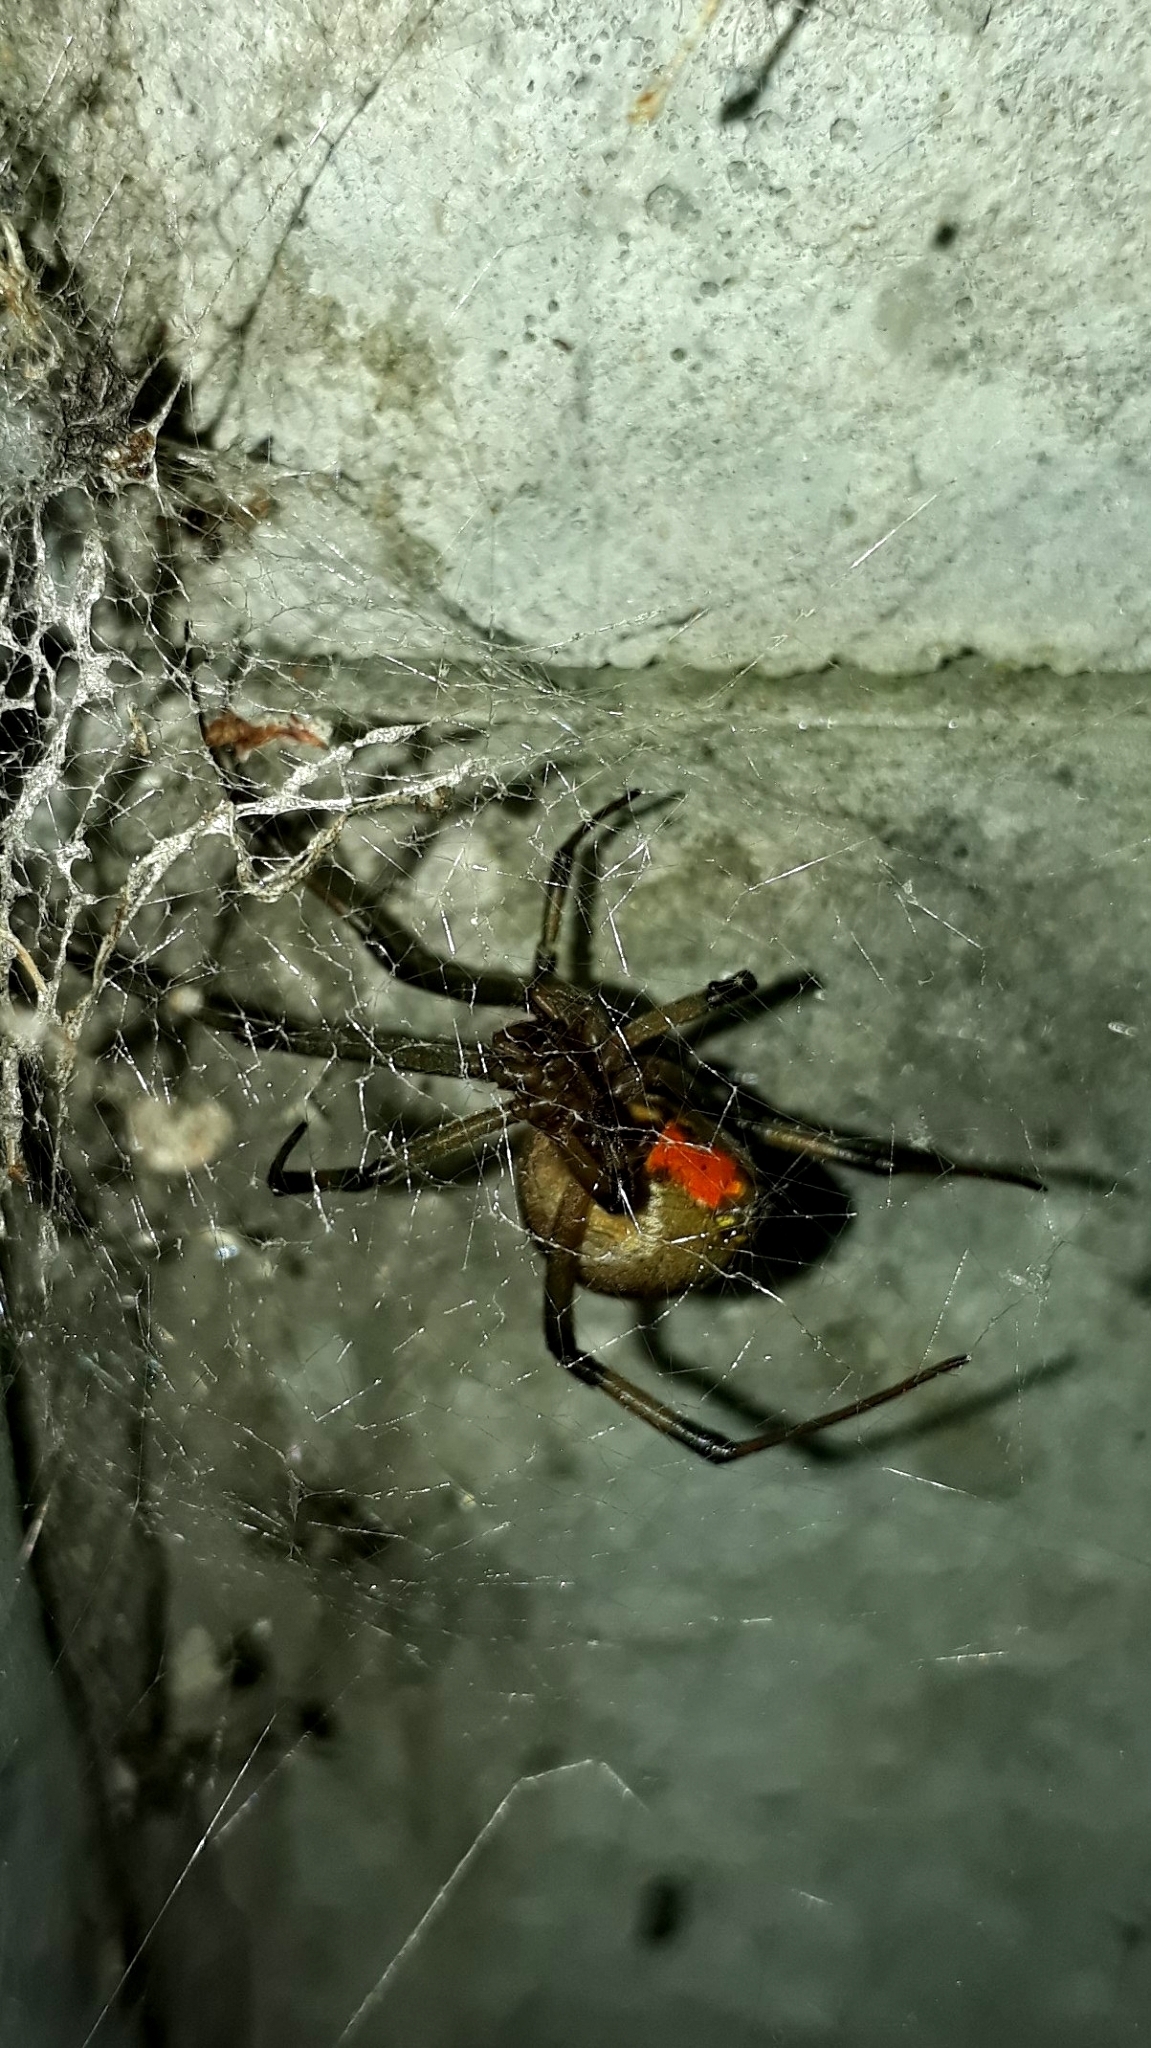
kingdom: Animalia
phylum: Arthropoda
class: Arachnida
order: Araneae
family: Theridiidae
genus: Latrodectus
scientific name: Latrodectus geometricus
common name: Brown widow spider
